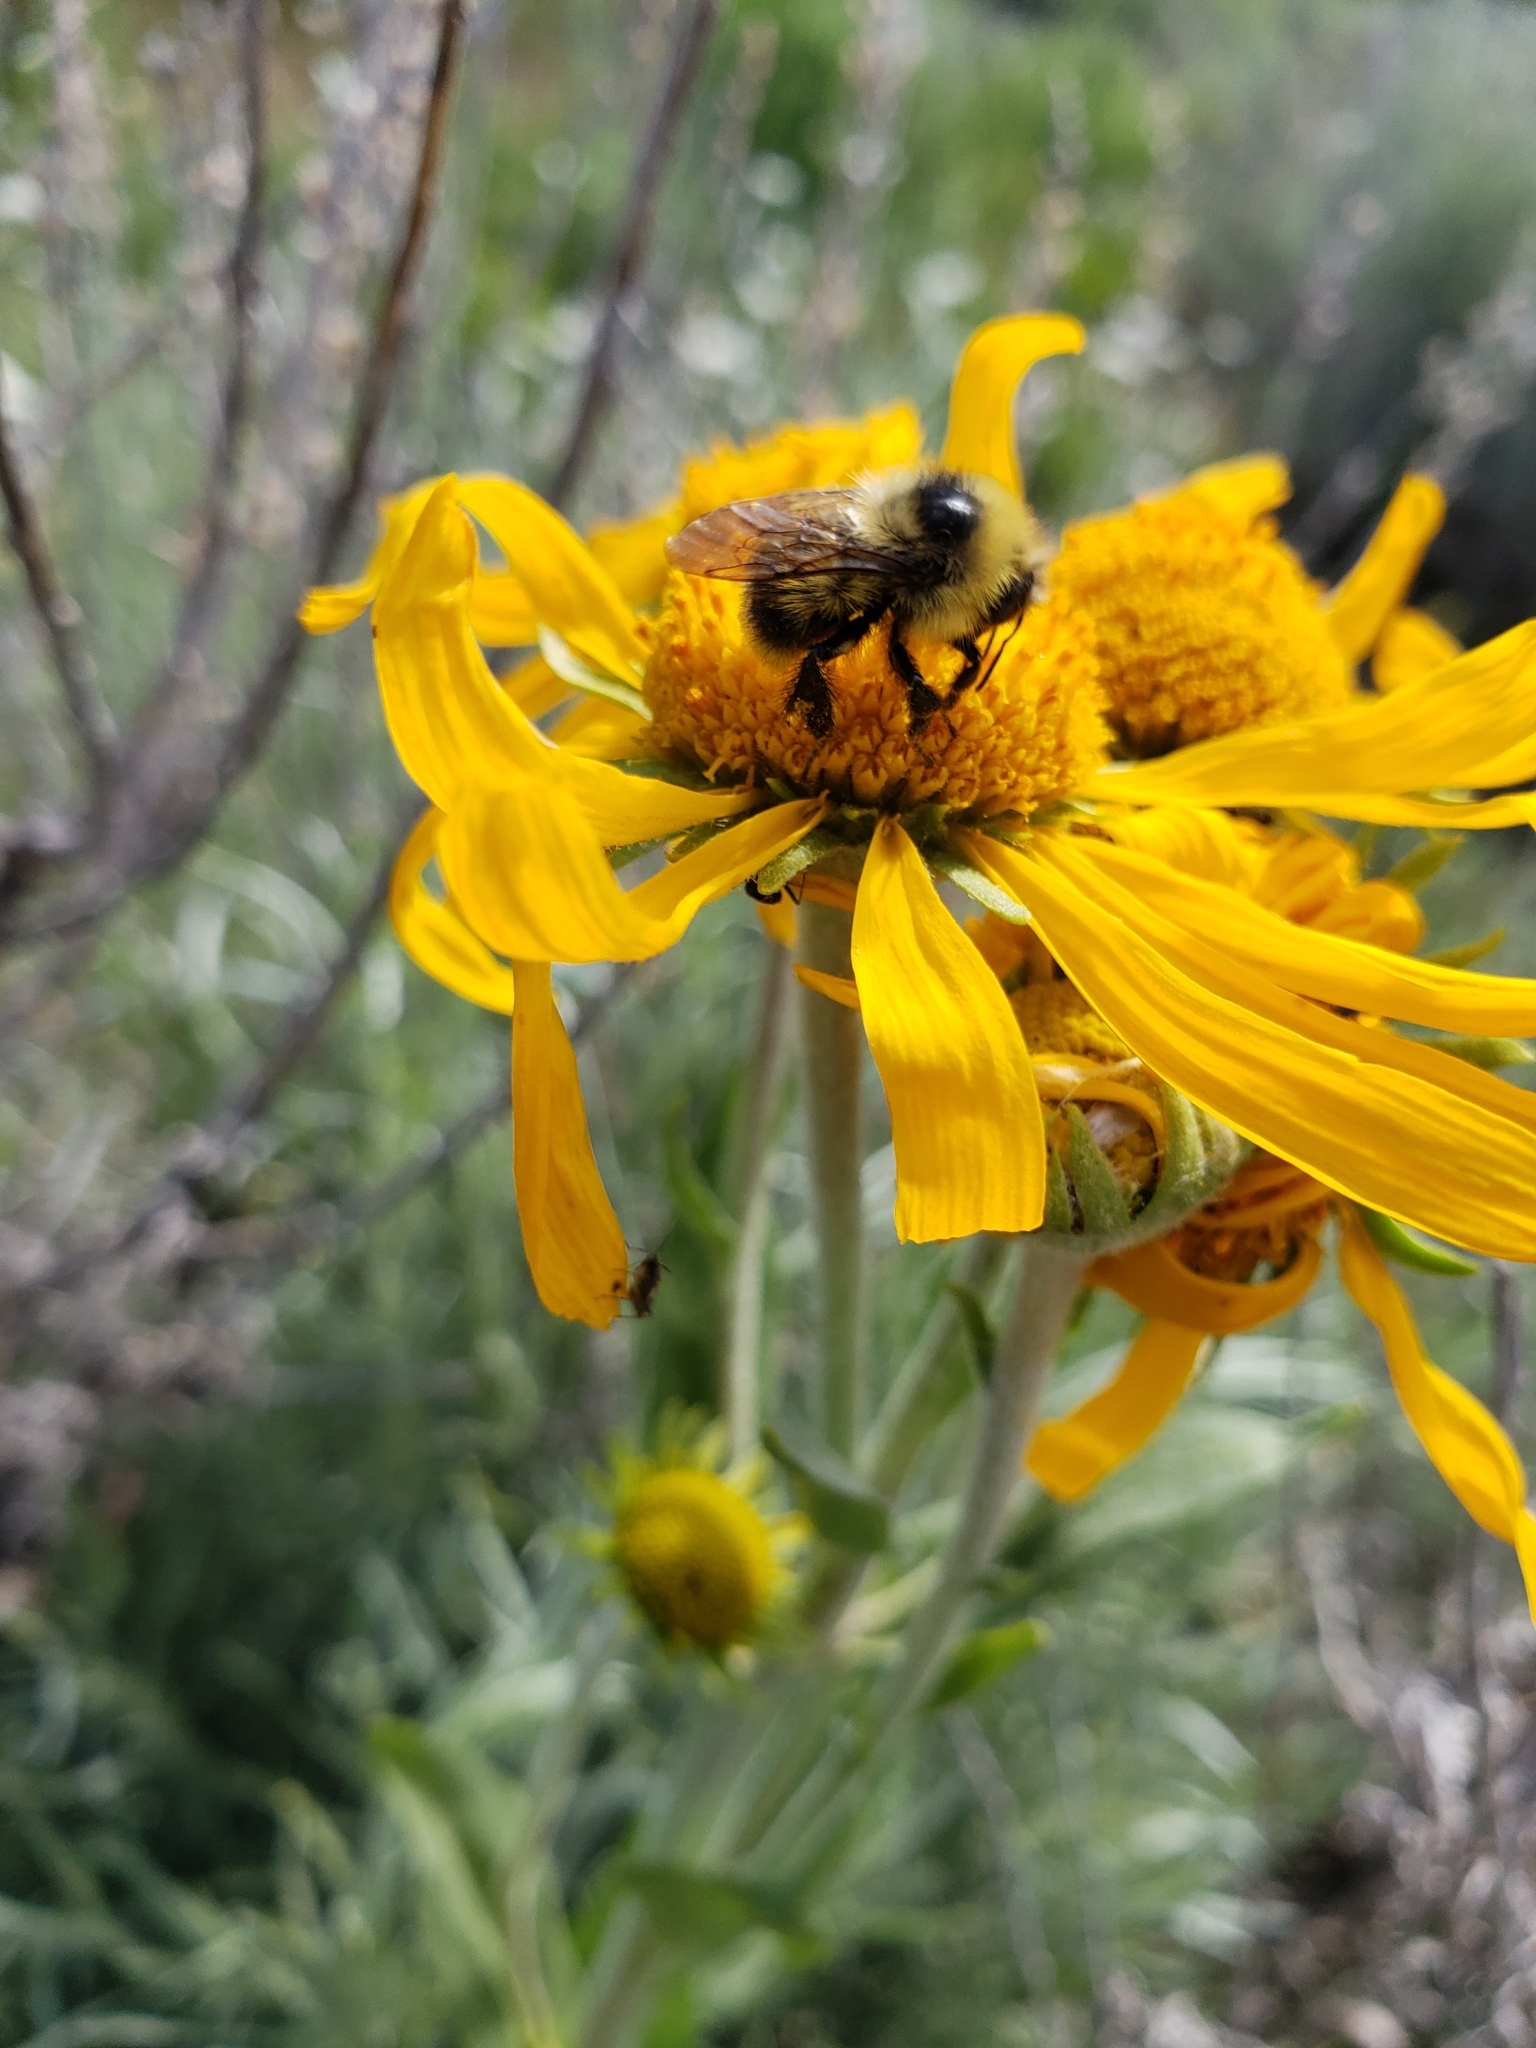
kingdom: Animalia
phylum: Arthropoda
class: Insecta
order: Hymenoptera
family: Apidae
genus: Bombus
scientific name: Bombus
